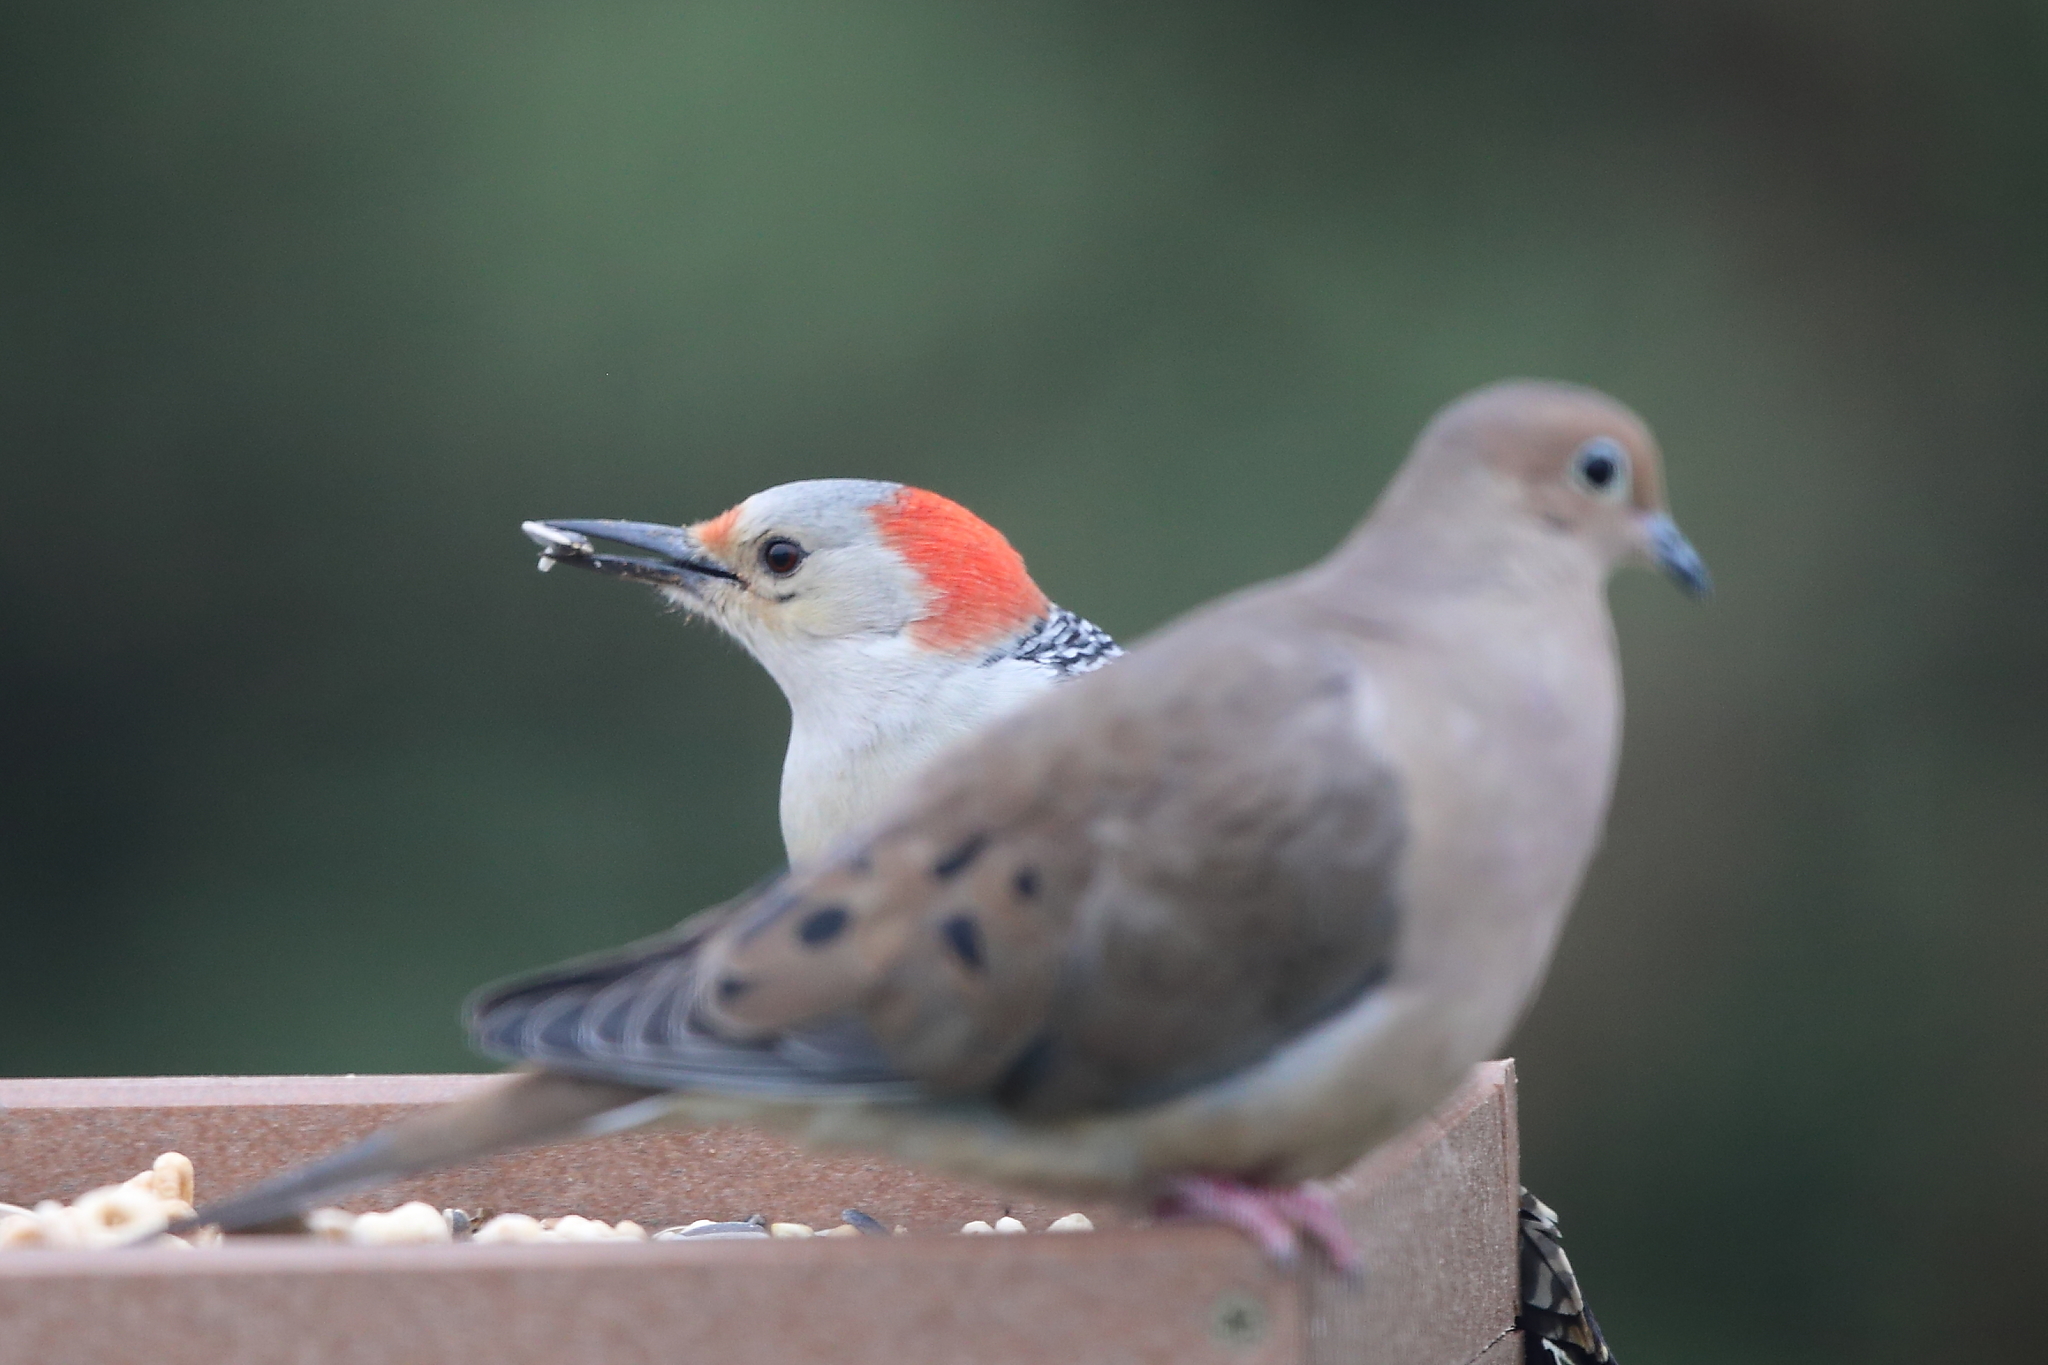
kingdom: Animalia
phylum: Chordata
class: Aves
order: Piciformes
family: Picidae
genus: Melanerpes
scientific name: Melanerpes carolinus
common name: Red-bellied woodpecker
